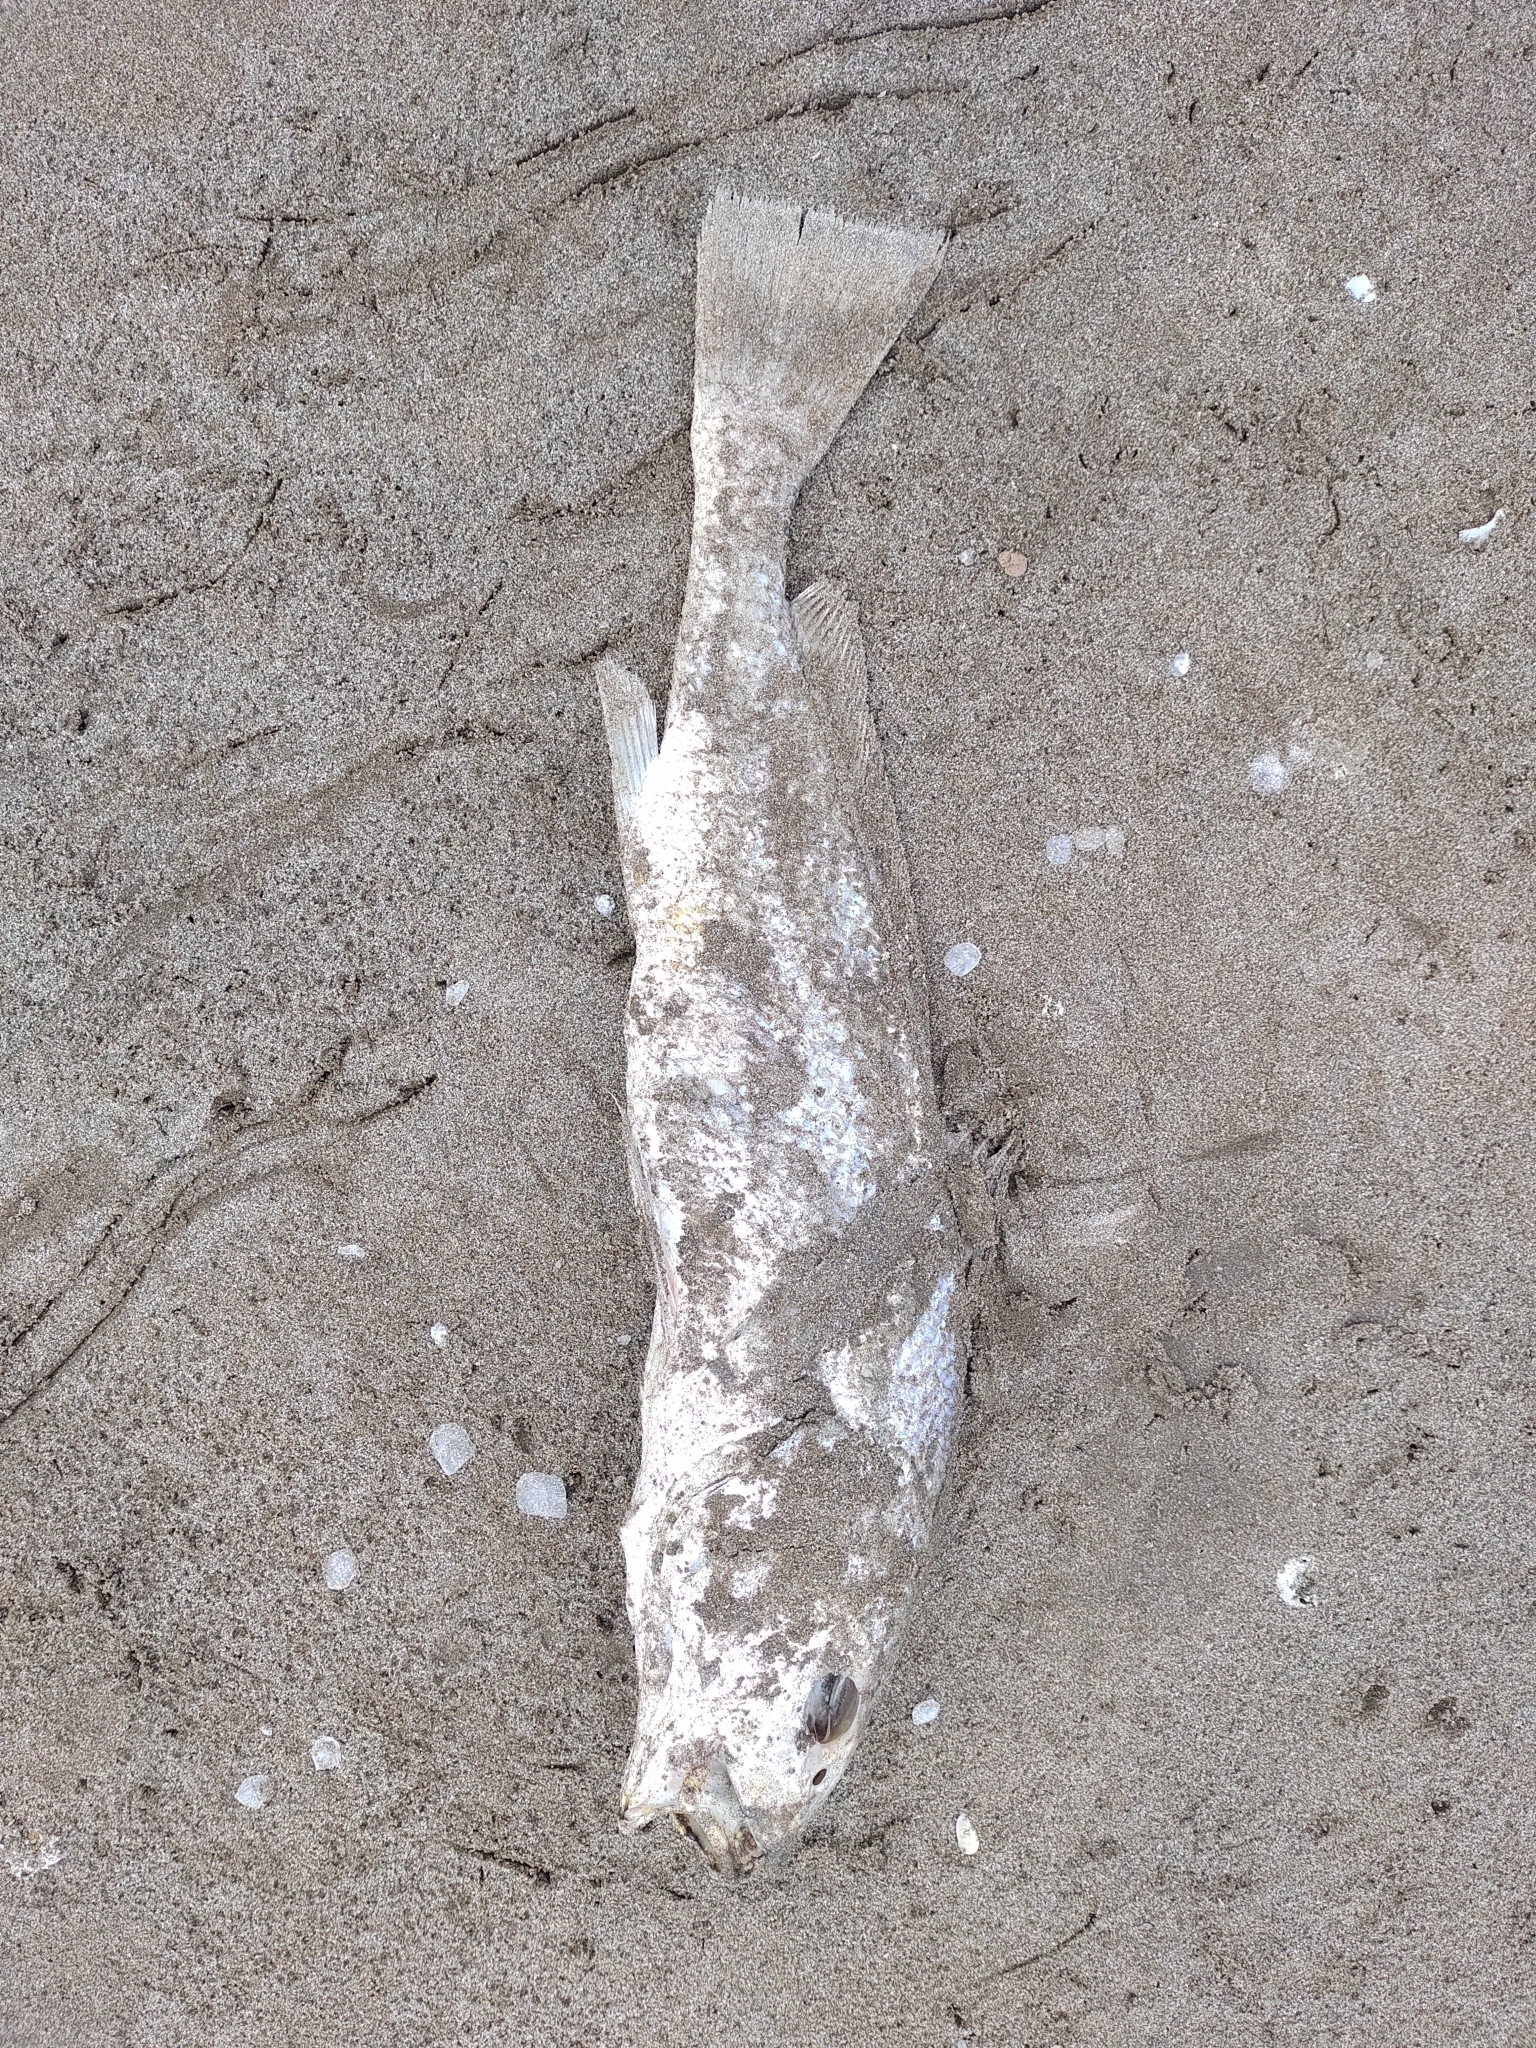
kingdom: Animalia
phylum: Chordata
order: Perciformes
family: Sciaenidae
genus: Menticirrhus
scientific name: Menticirrhus americanus
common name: Southern kingfish
